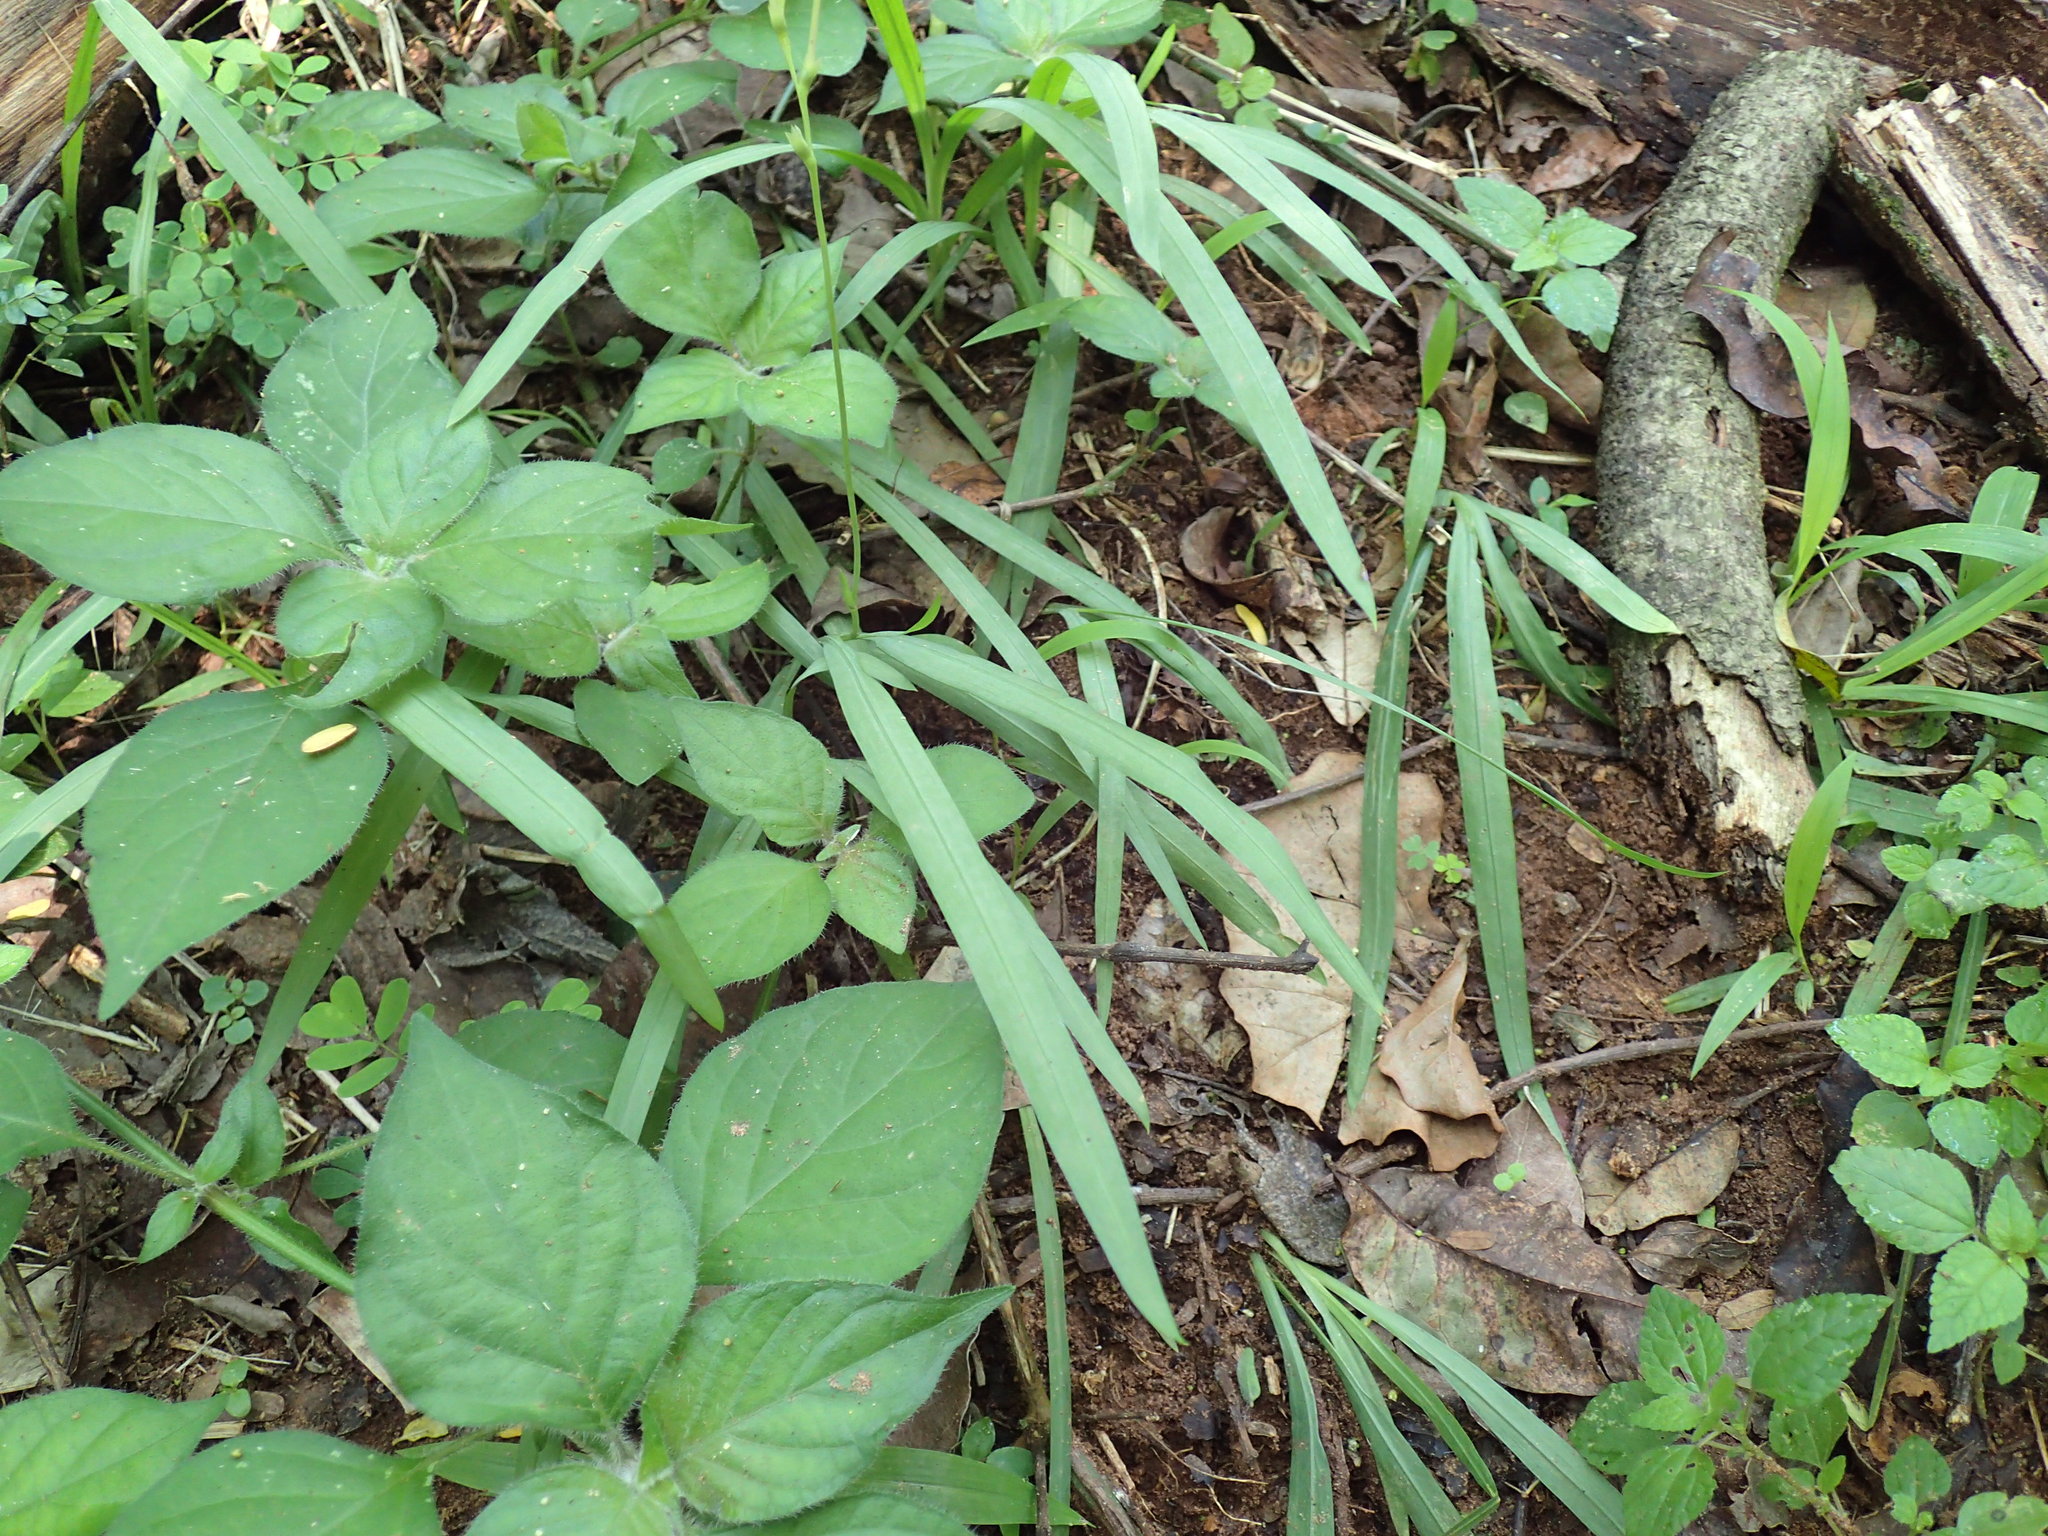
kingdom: Plantae
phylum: Tracheophyta
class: Liliopsida
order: Asparagales
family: Iridaceae
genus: Freesia
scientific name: Freesia laxa
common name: False freesia
